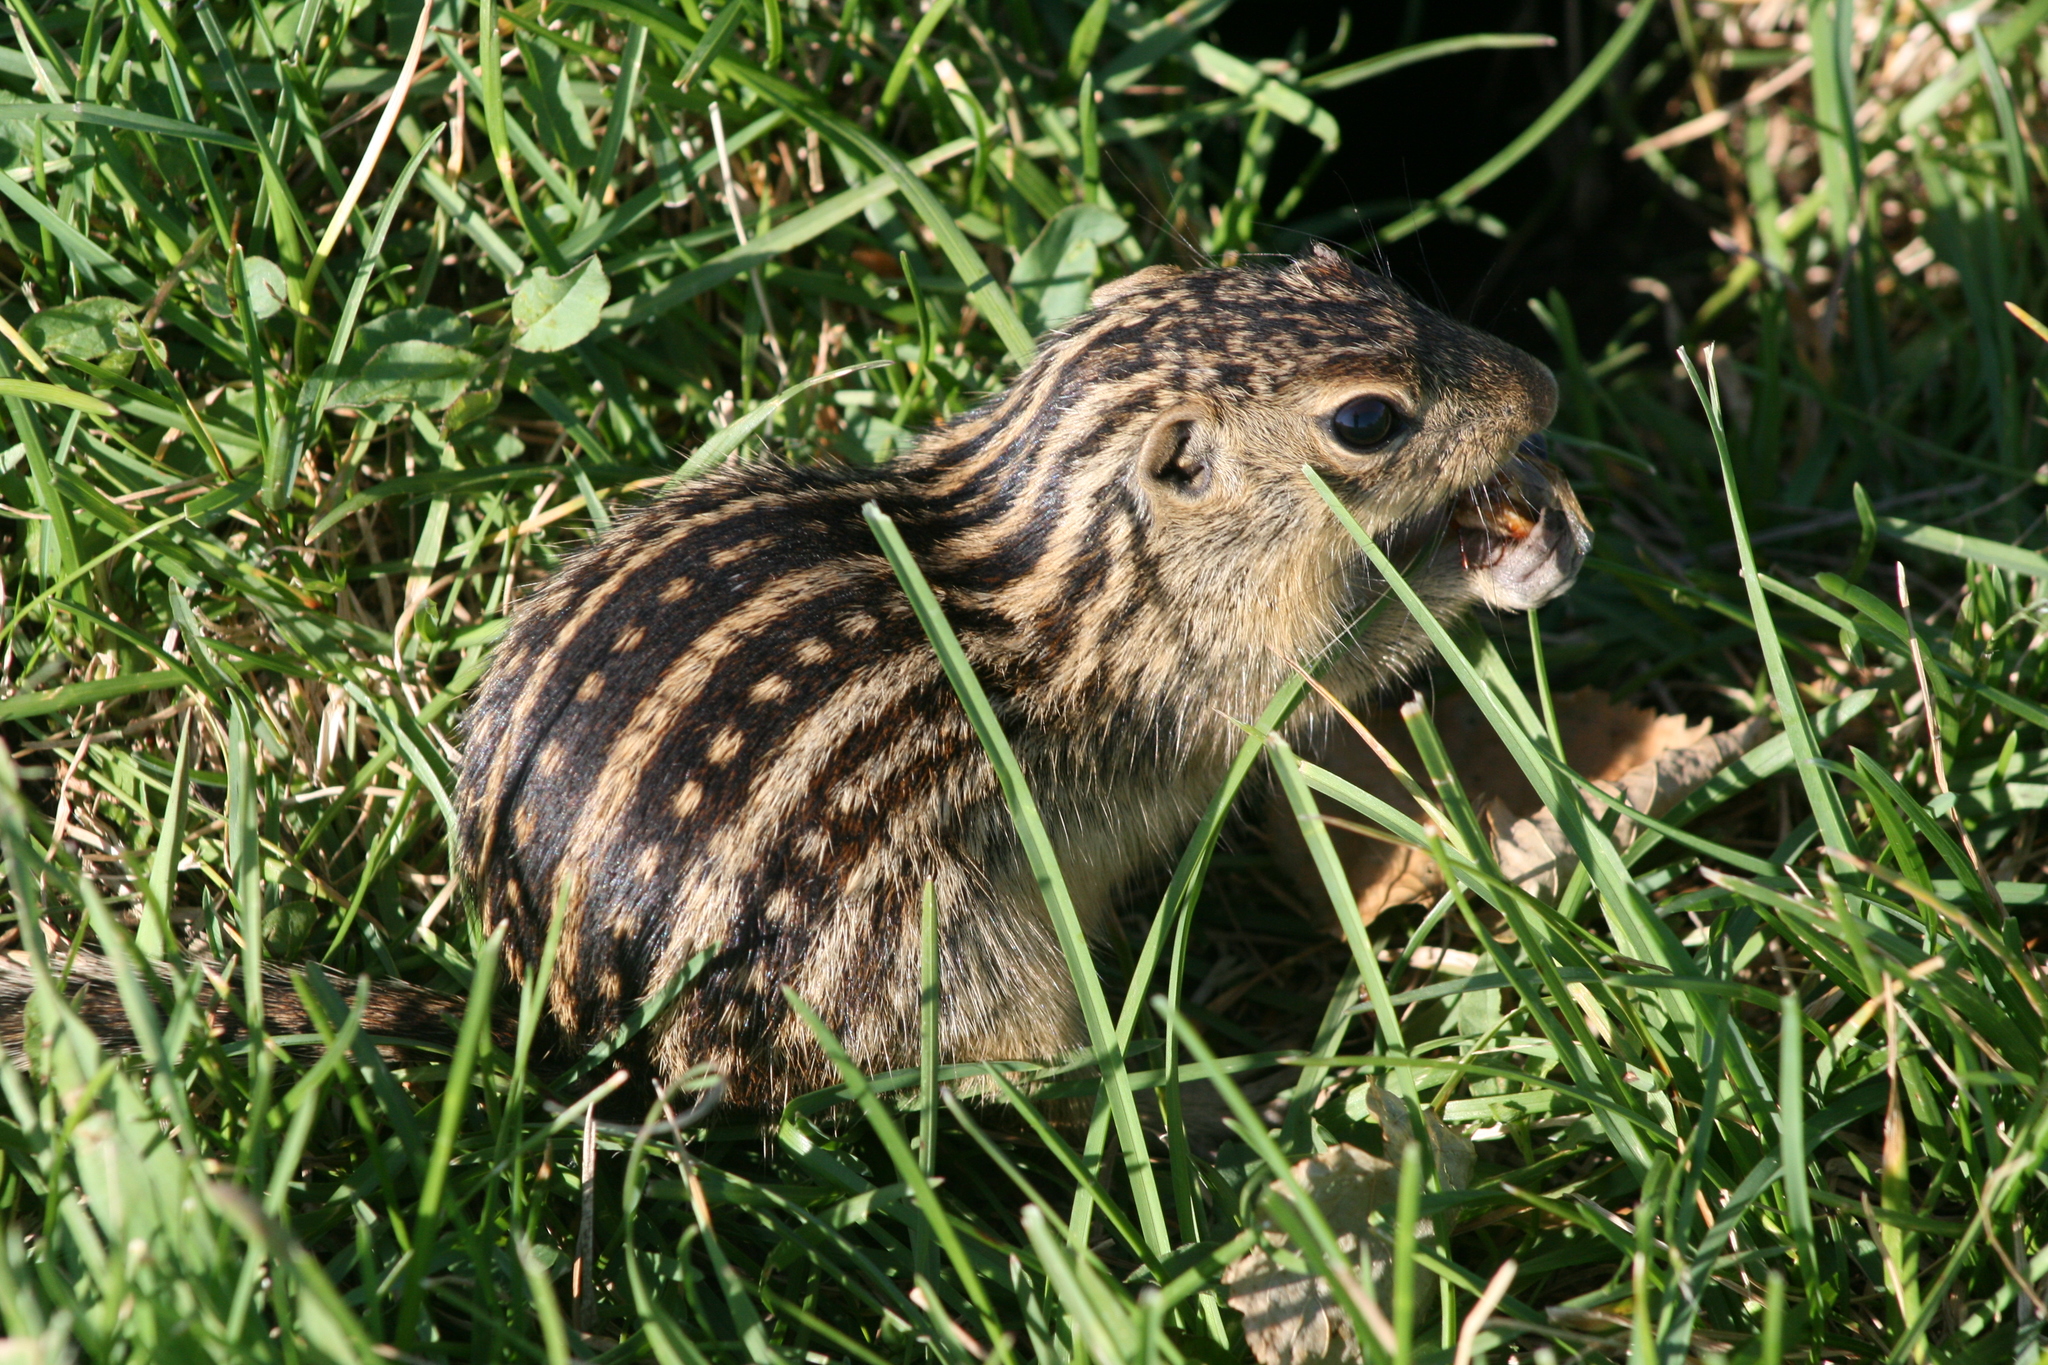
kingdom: Animalia
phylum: Chordata
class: Mammalia
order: Rodentia
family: Sciuridae
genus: Ictidomys
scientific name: Ictidomys tridecemlineatus
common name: Thirteen-lined ground squirrel
